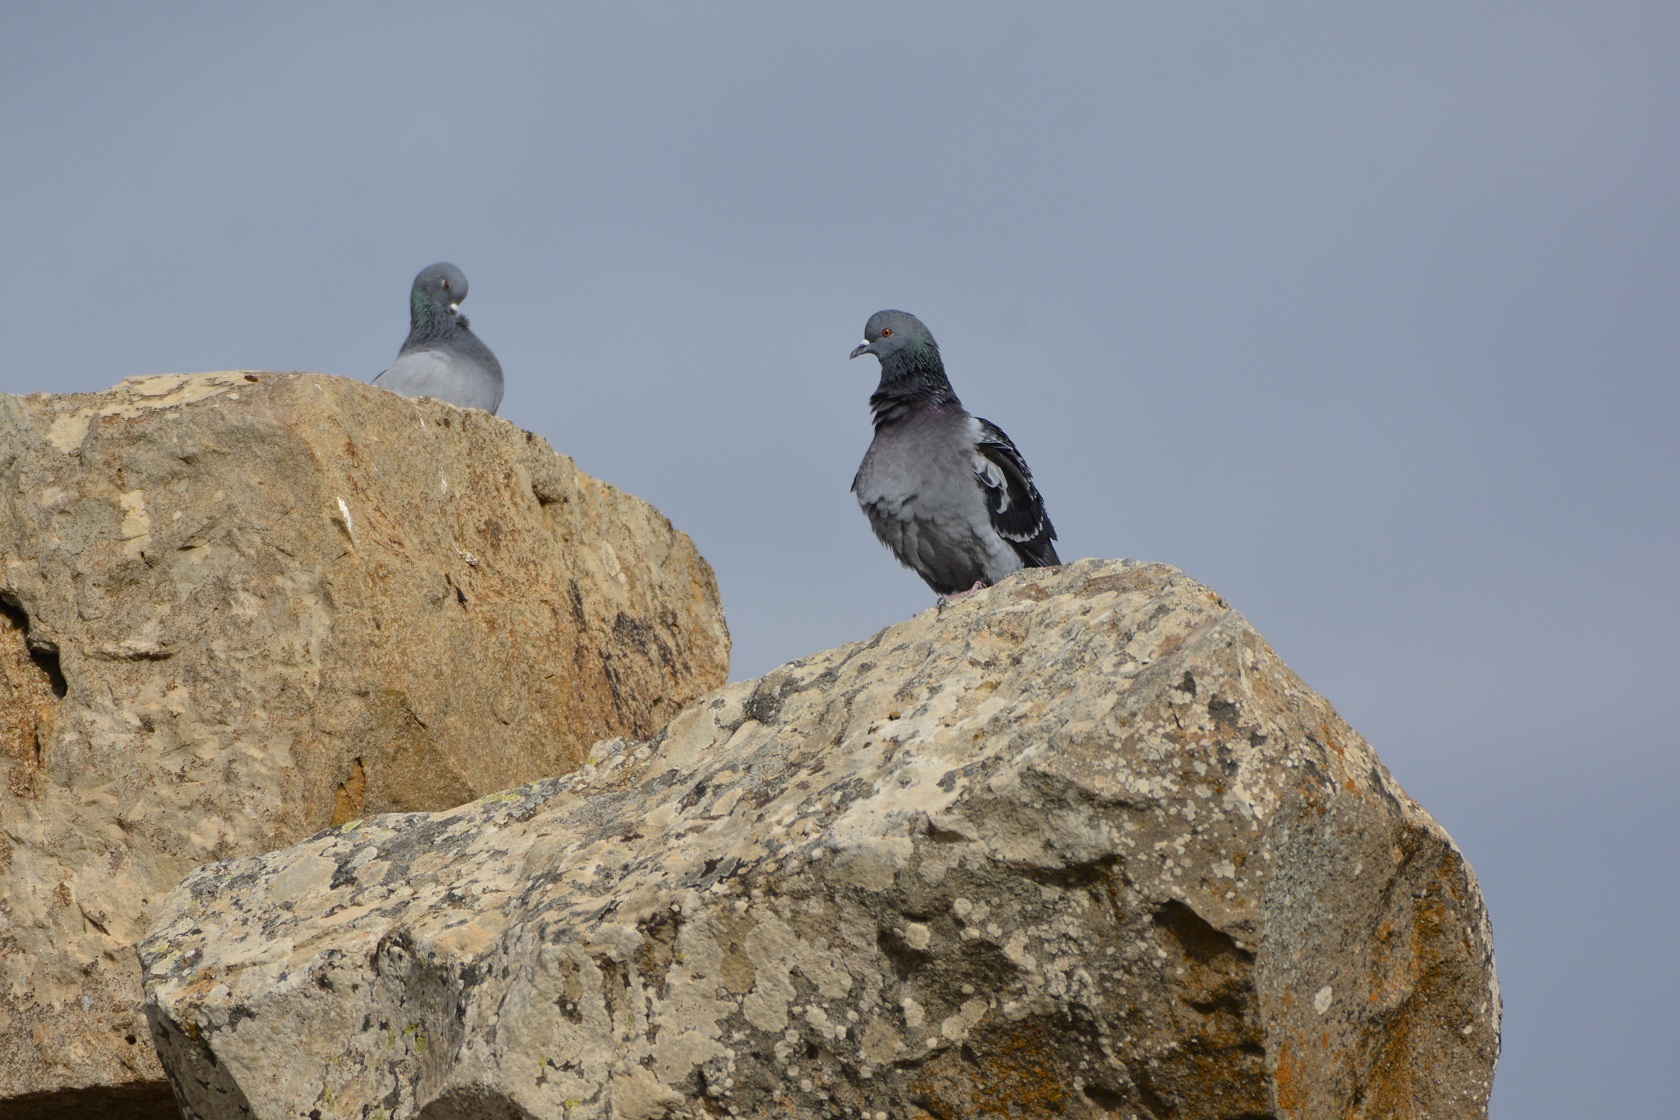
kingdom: Animalia
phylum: Chordata
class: Aves
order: Columbiformes
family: Columbidae
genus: Columba
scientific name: Columba livia
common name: Rock pigeon
